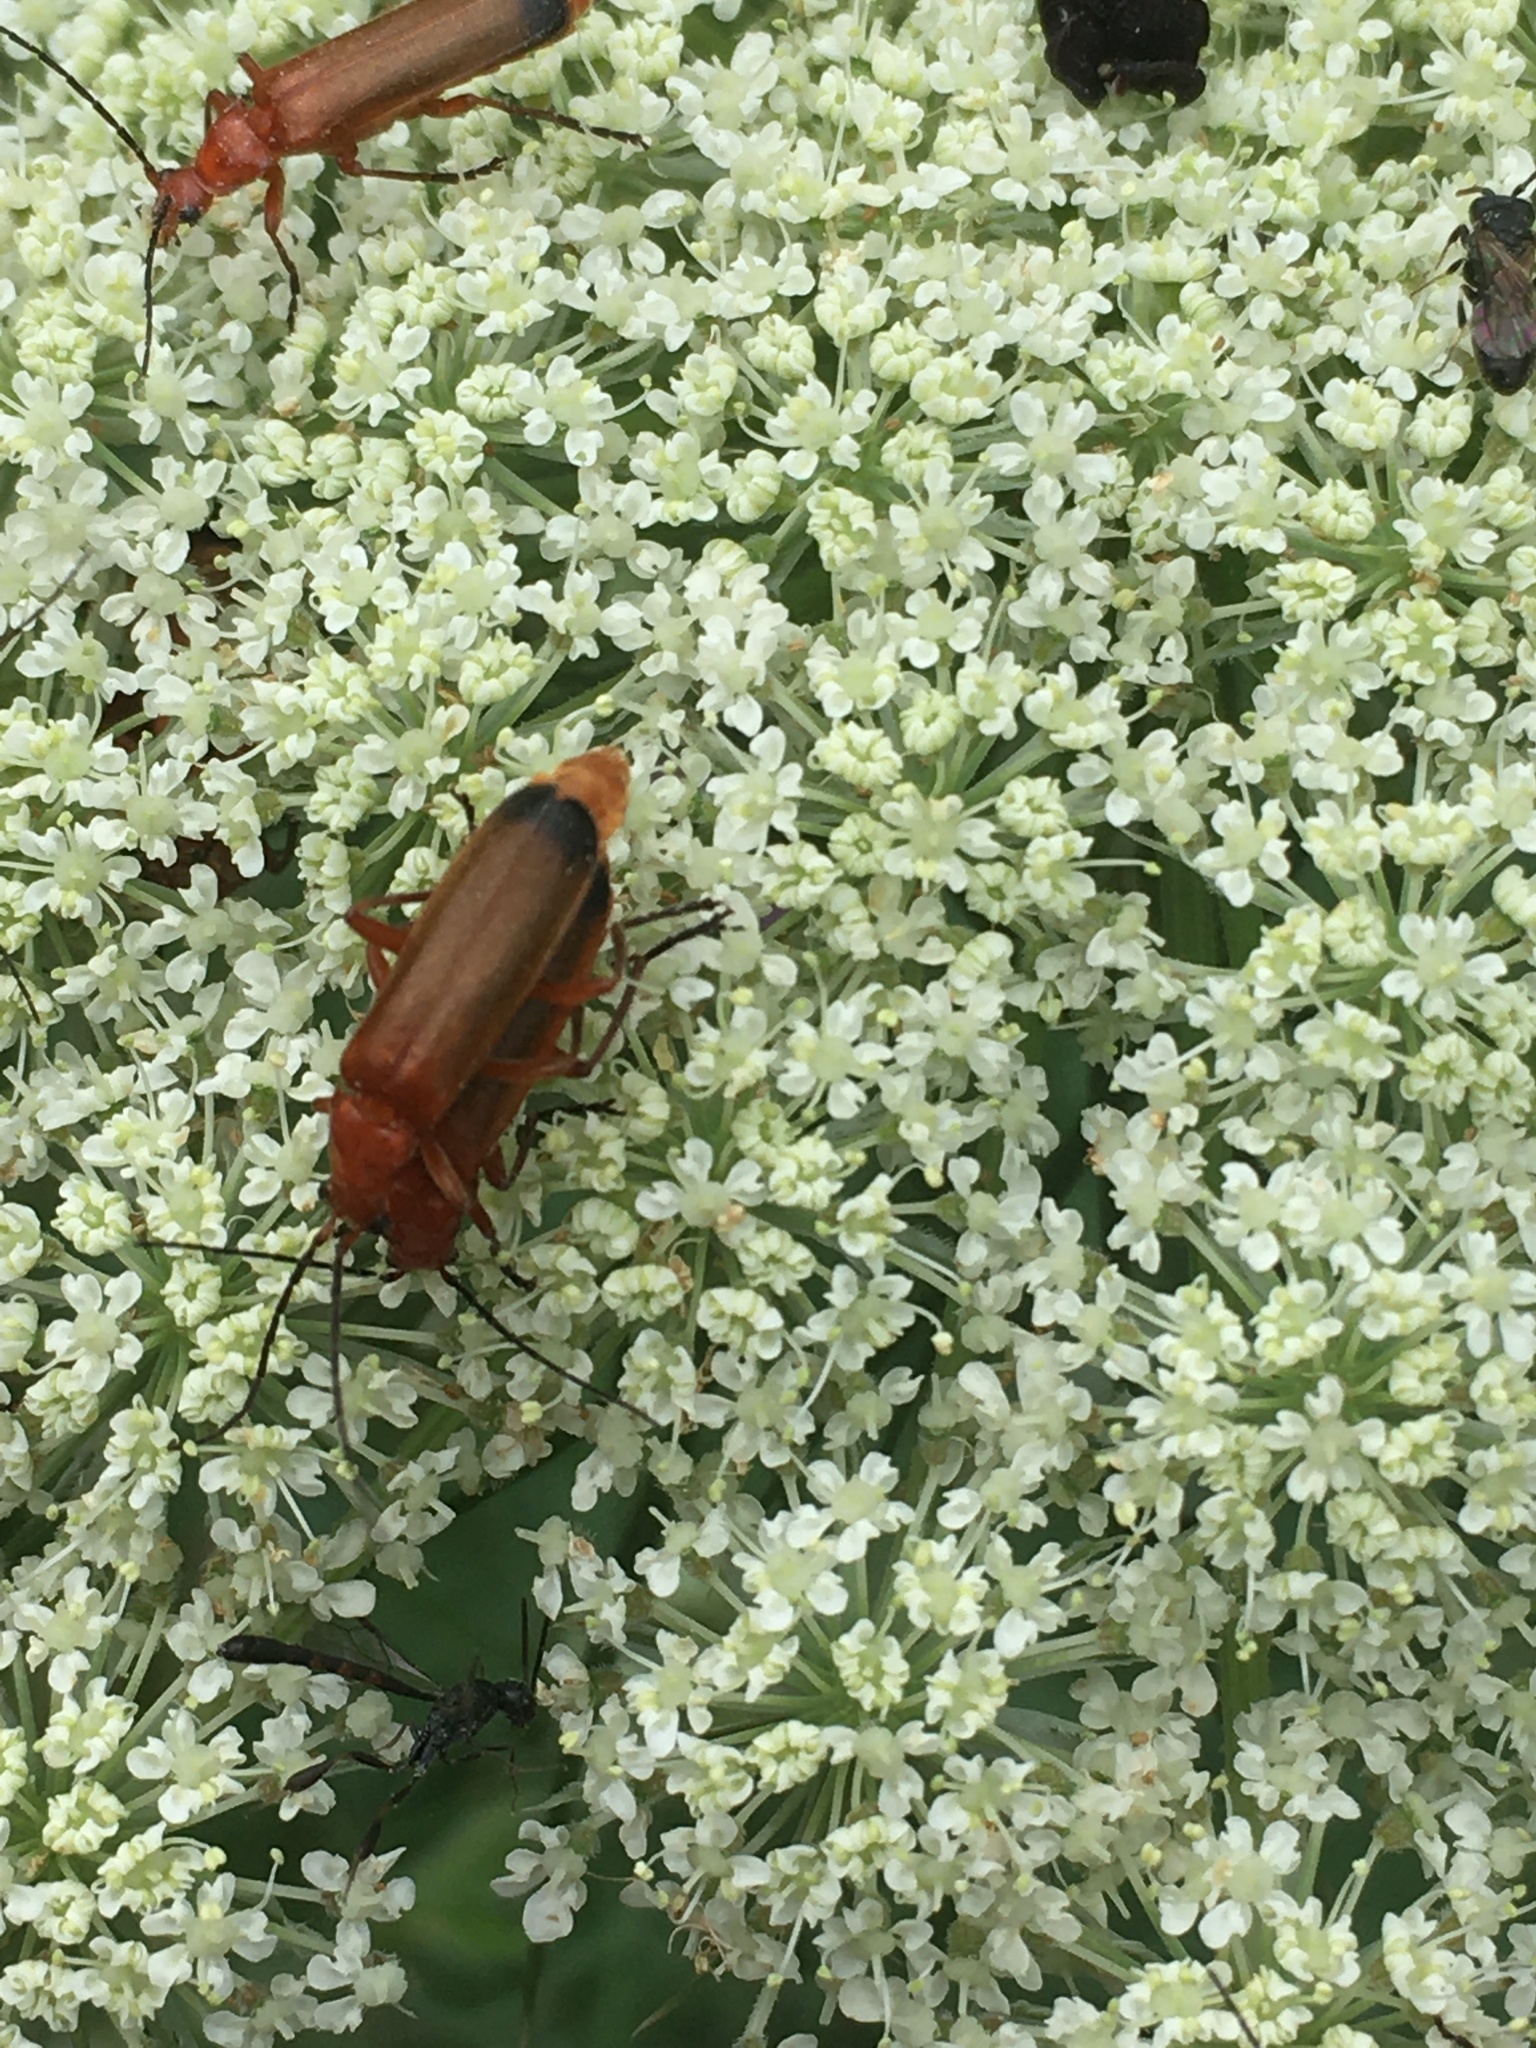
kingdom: Animalia
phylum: Arthropoda
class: Insecta
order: Coleoptera
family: Cantharidae
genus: Rhagonycha
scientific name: Rhagonycha fulva
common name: Common red soldier beetle
